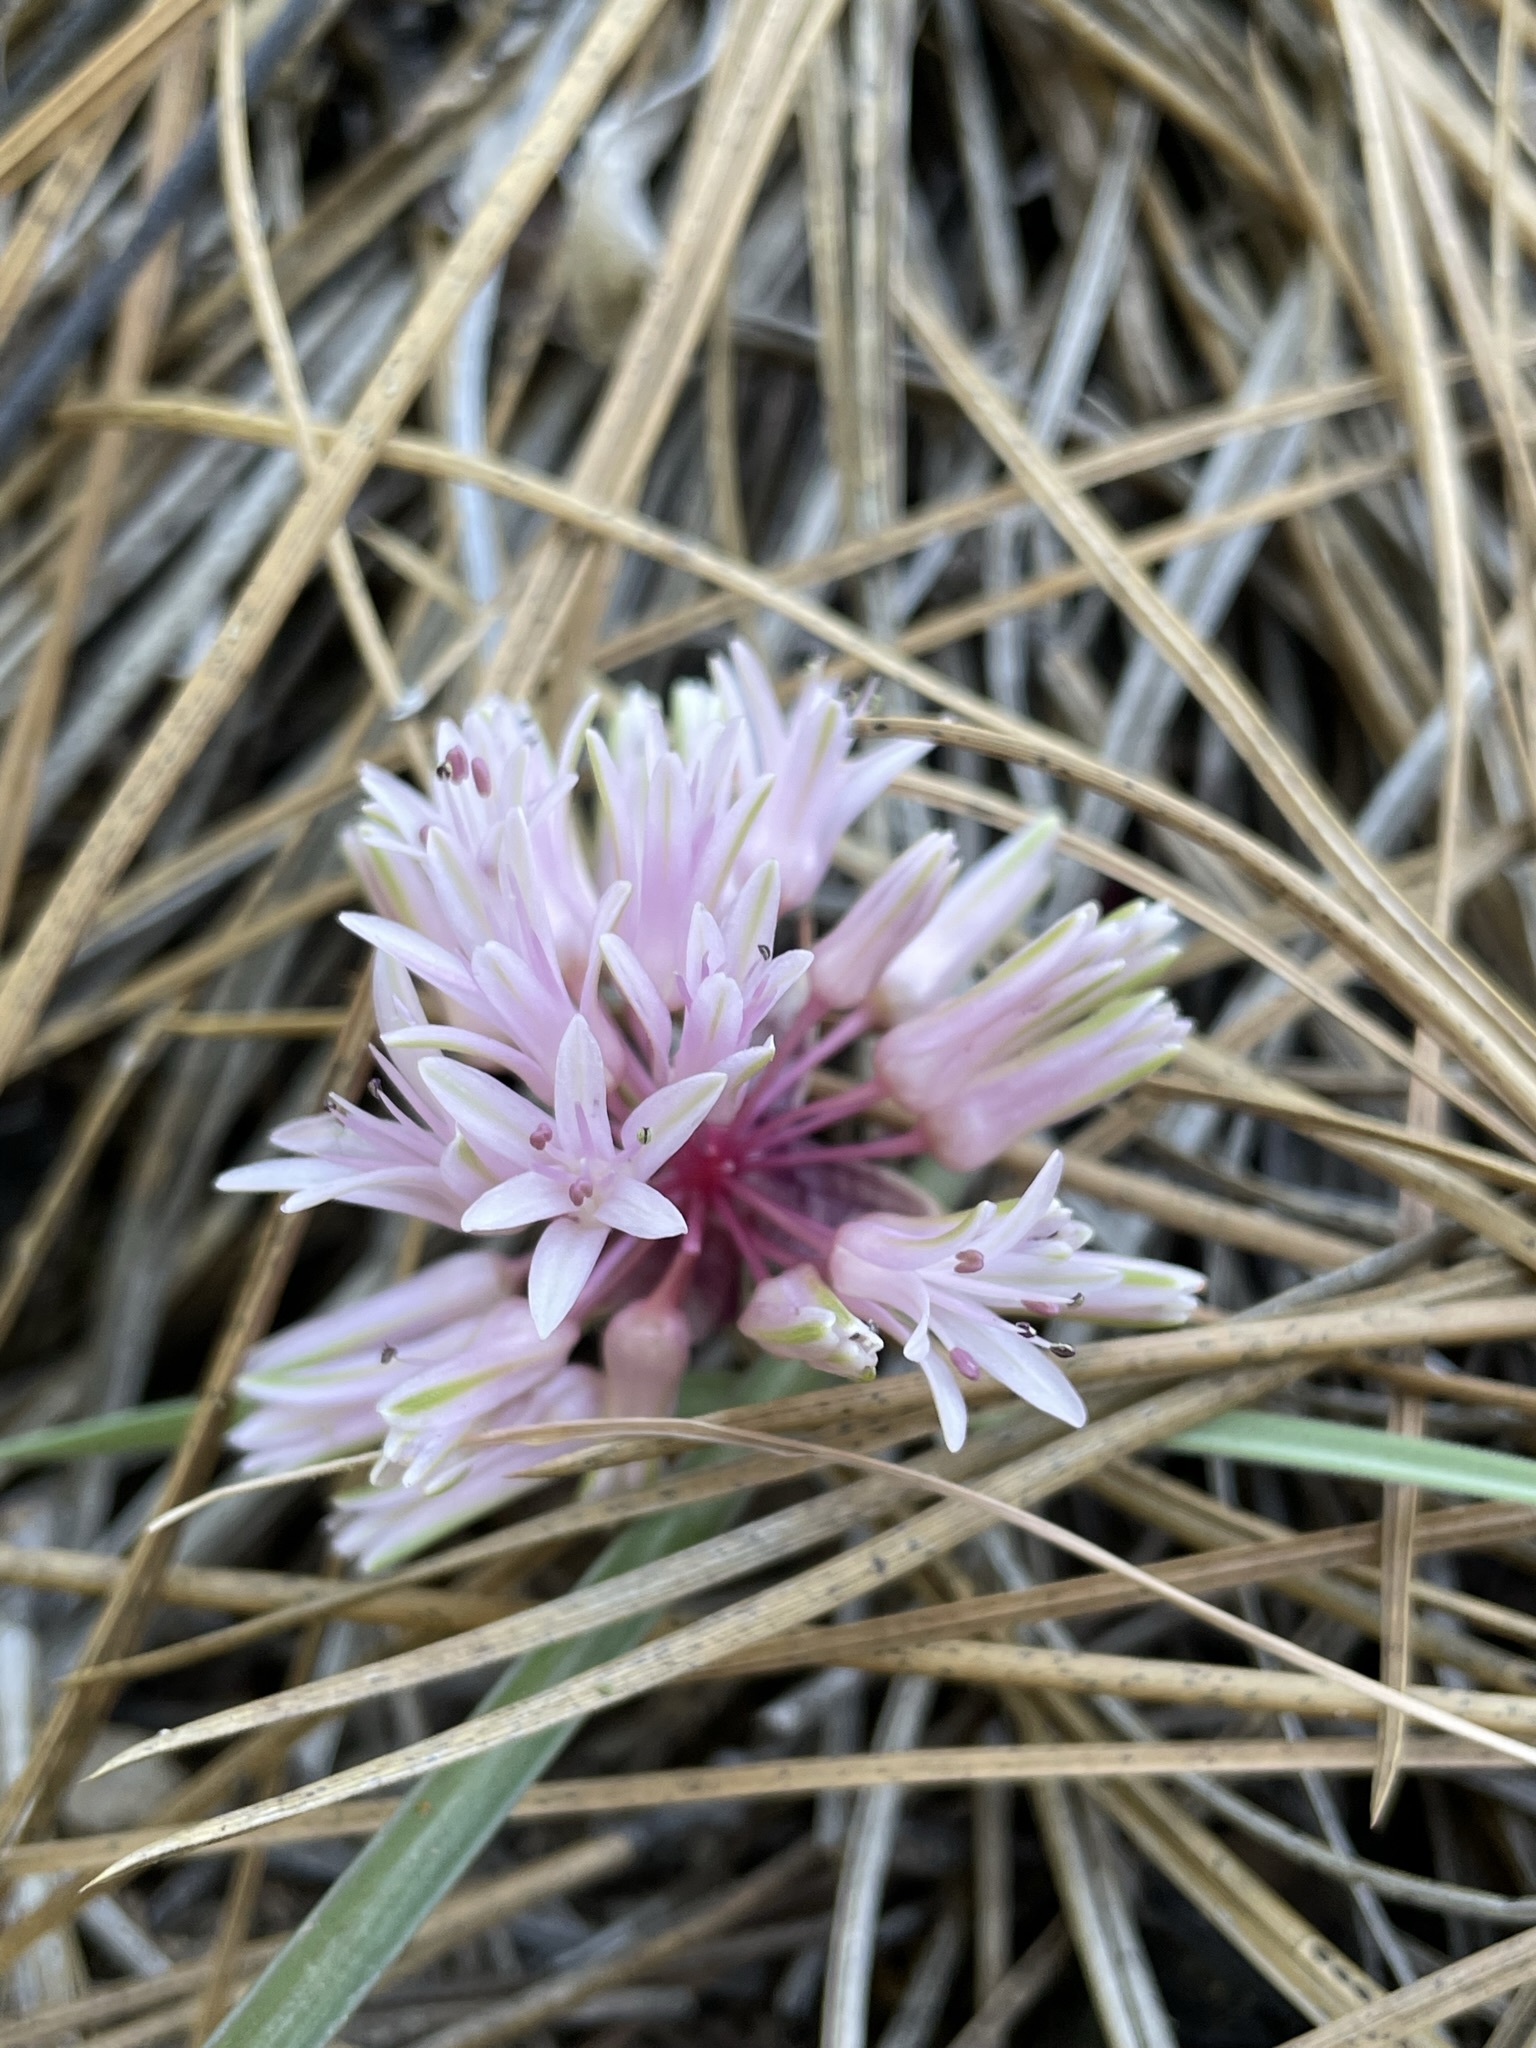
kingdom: Plantae
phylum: Tracheophyta
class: Liliopsida
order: Asparagales
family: Amaryllidaceae
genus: Allium
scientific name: Allium cratericola
